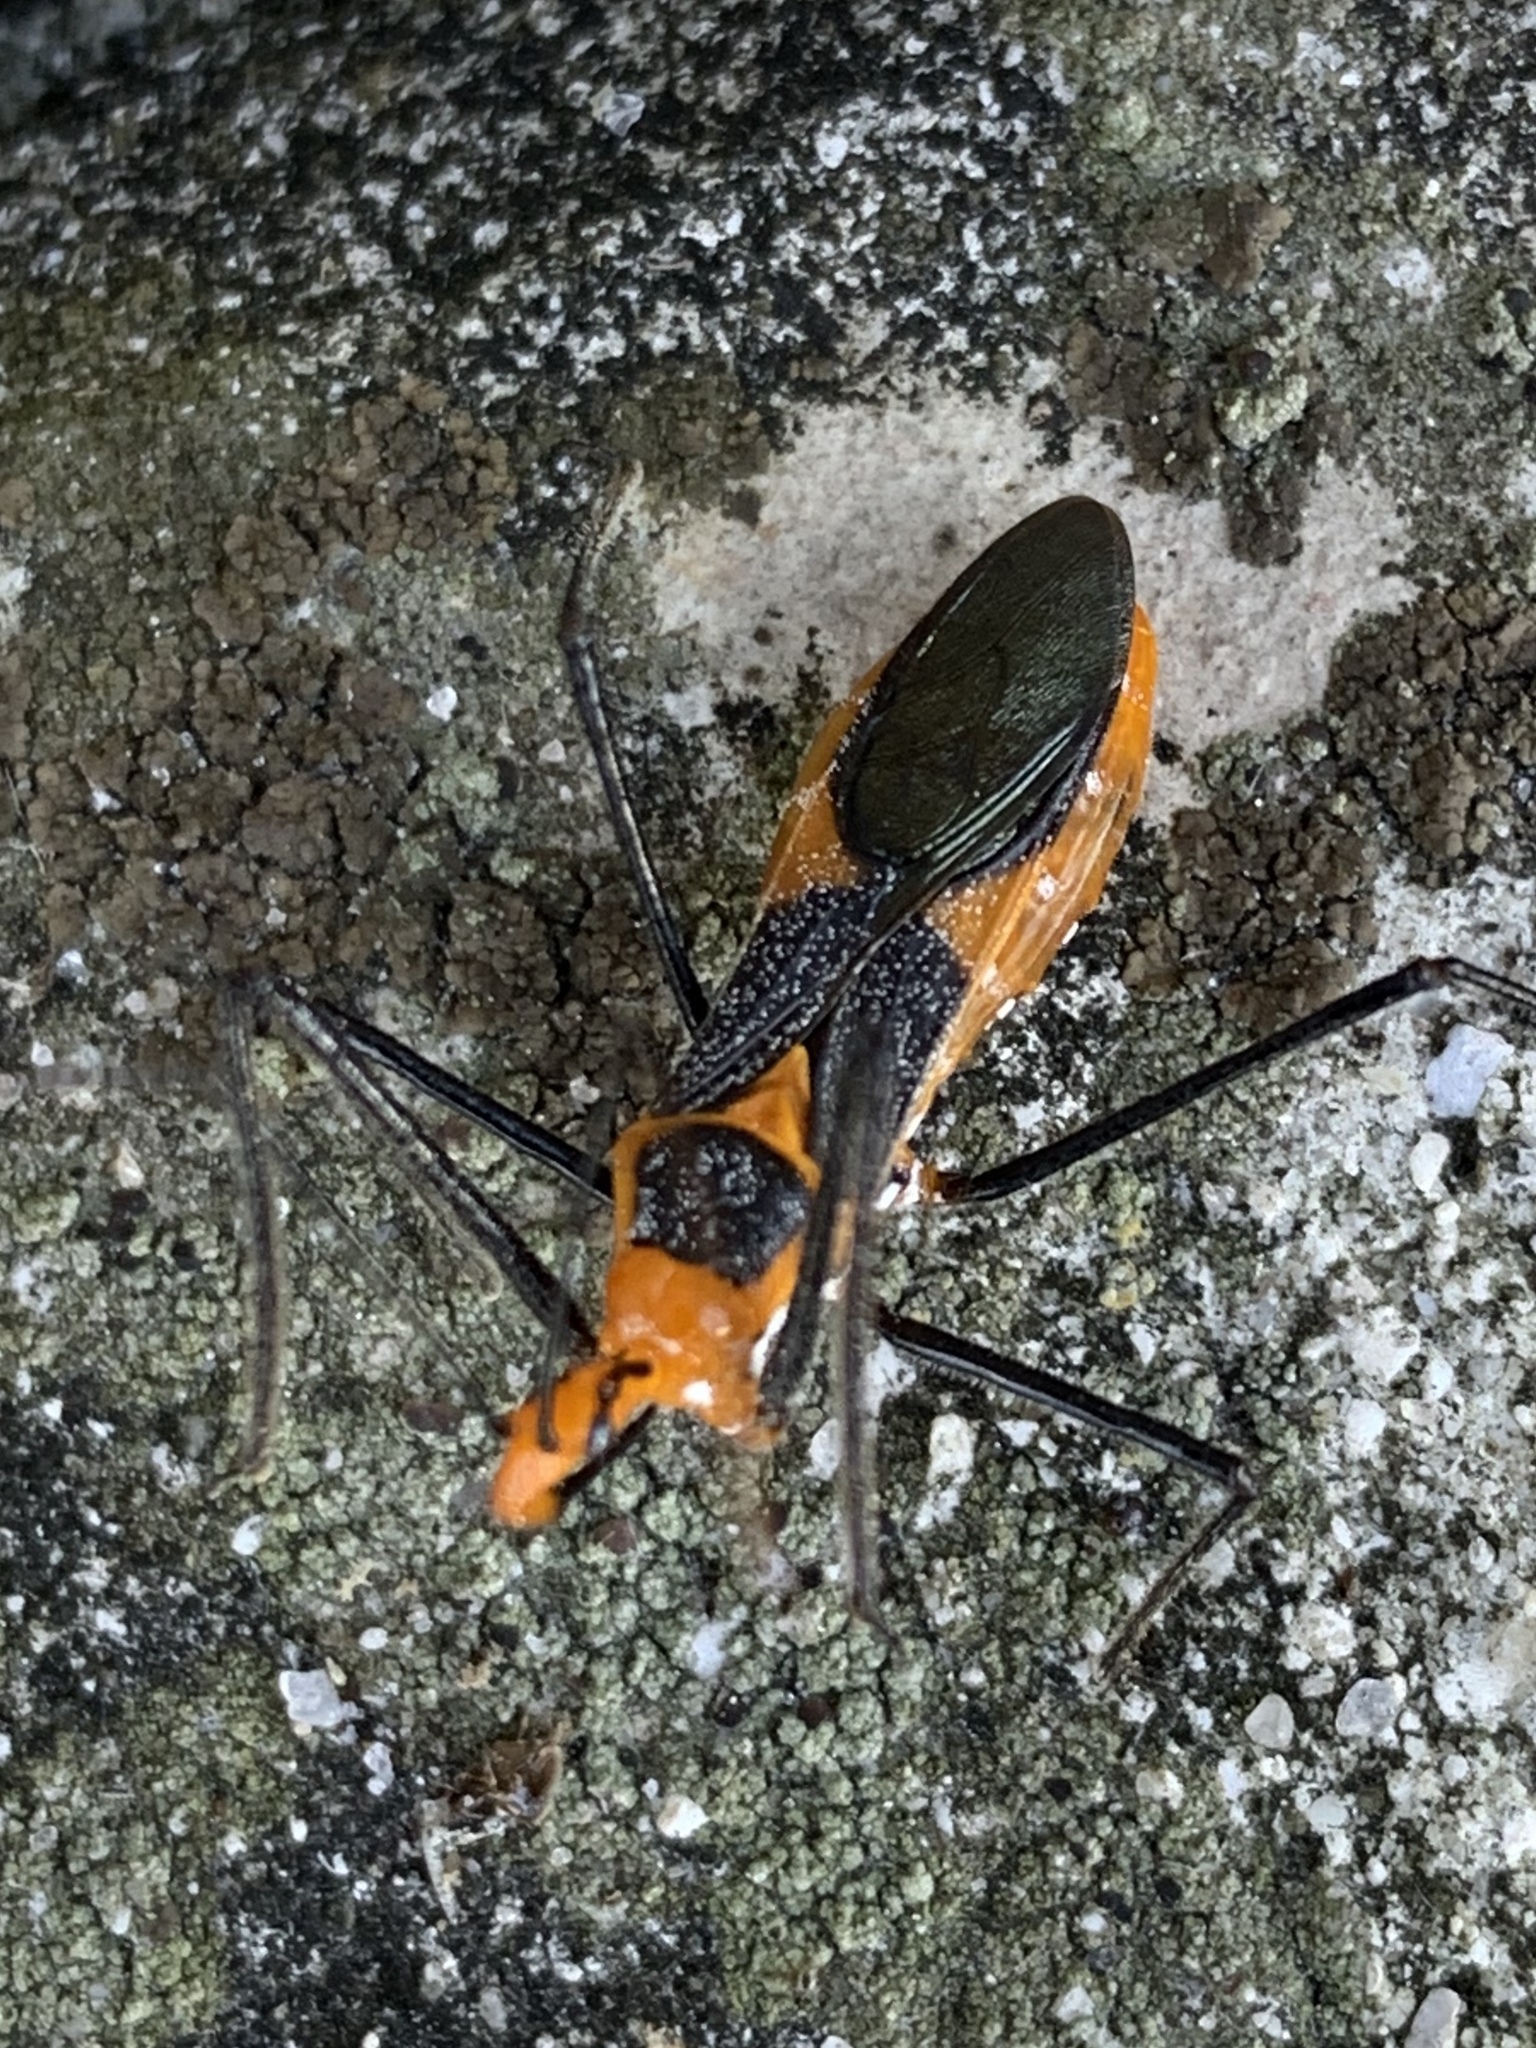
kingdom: Animalia
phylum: Arthropoda
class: Insecta
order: Hemiptera
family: Reduviidae
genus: Zelus
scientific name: Zelus longipes
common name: Milkweed assassin bug
